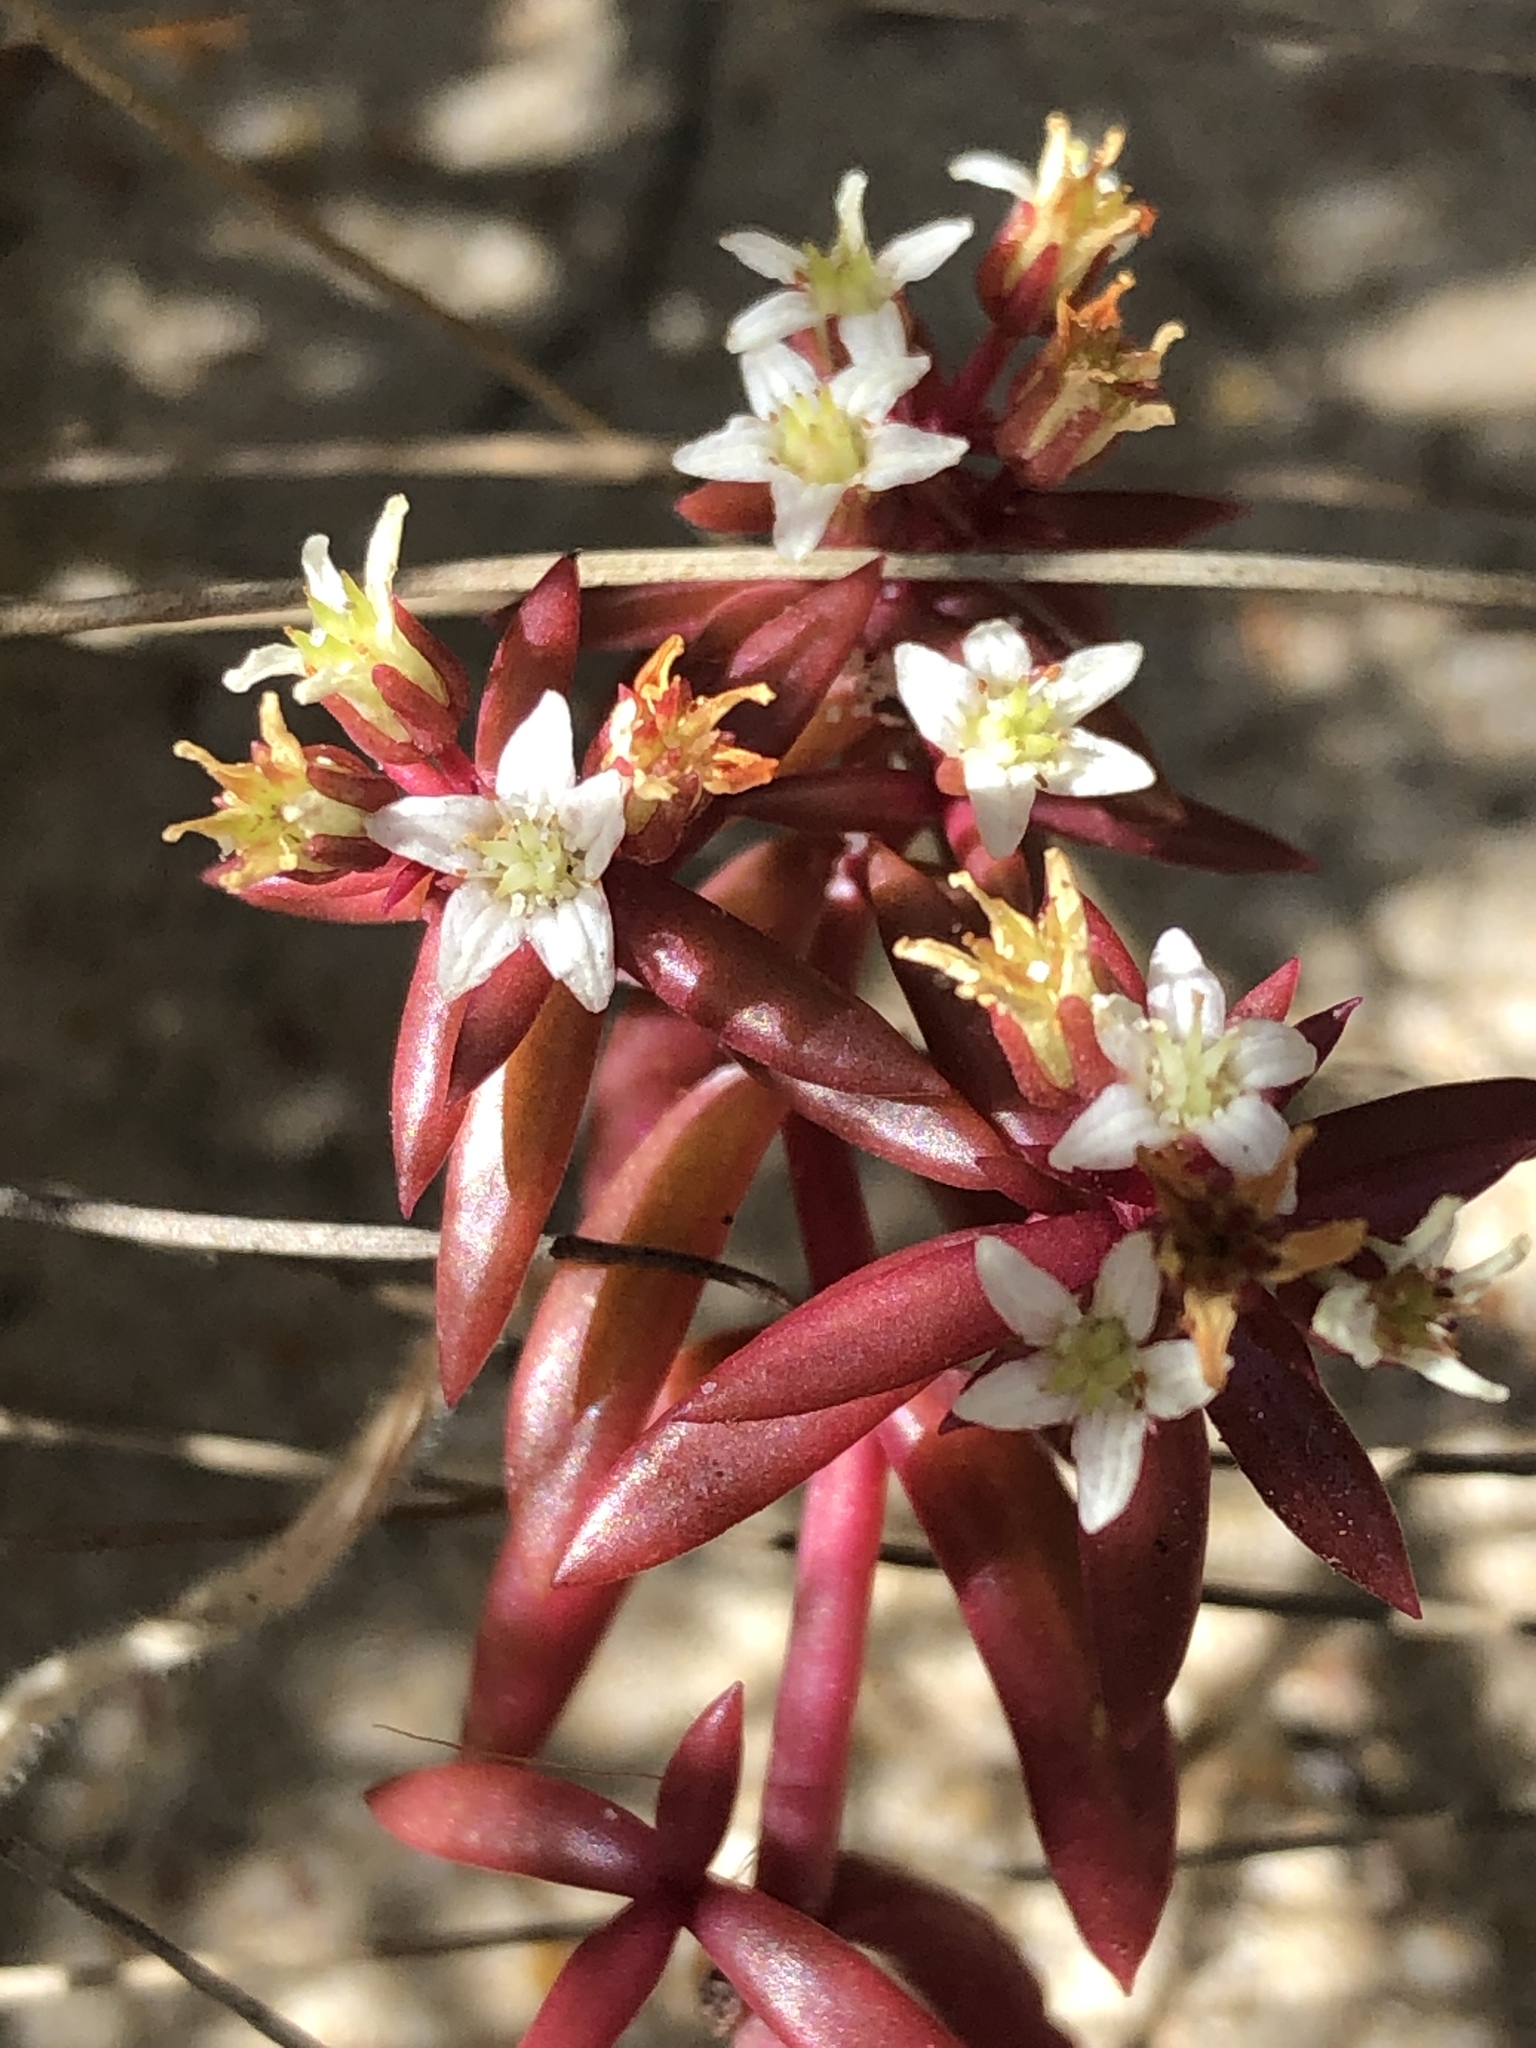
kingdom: Plantae
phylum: Tracheophyta
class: Magnoliopsida
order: Saxifragales
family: Crassulaceae
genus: Crassula
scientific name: Crassula expansa
